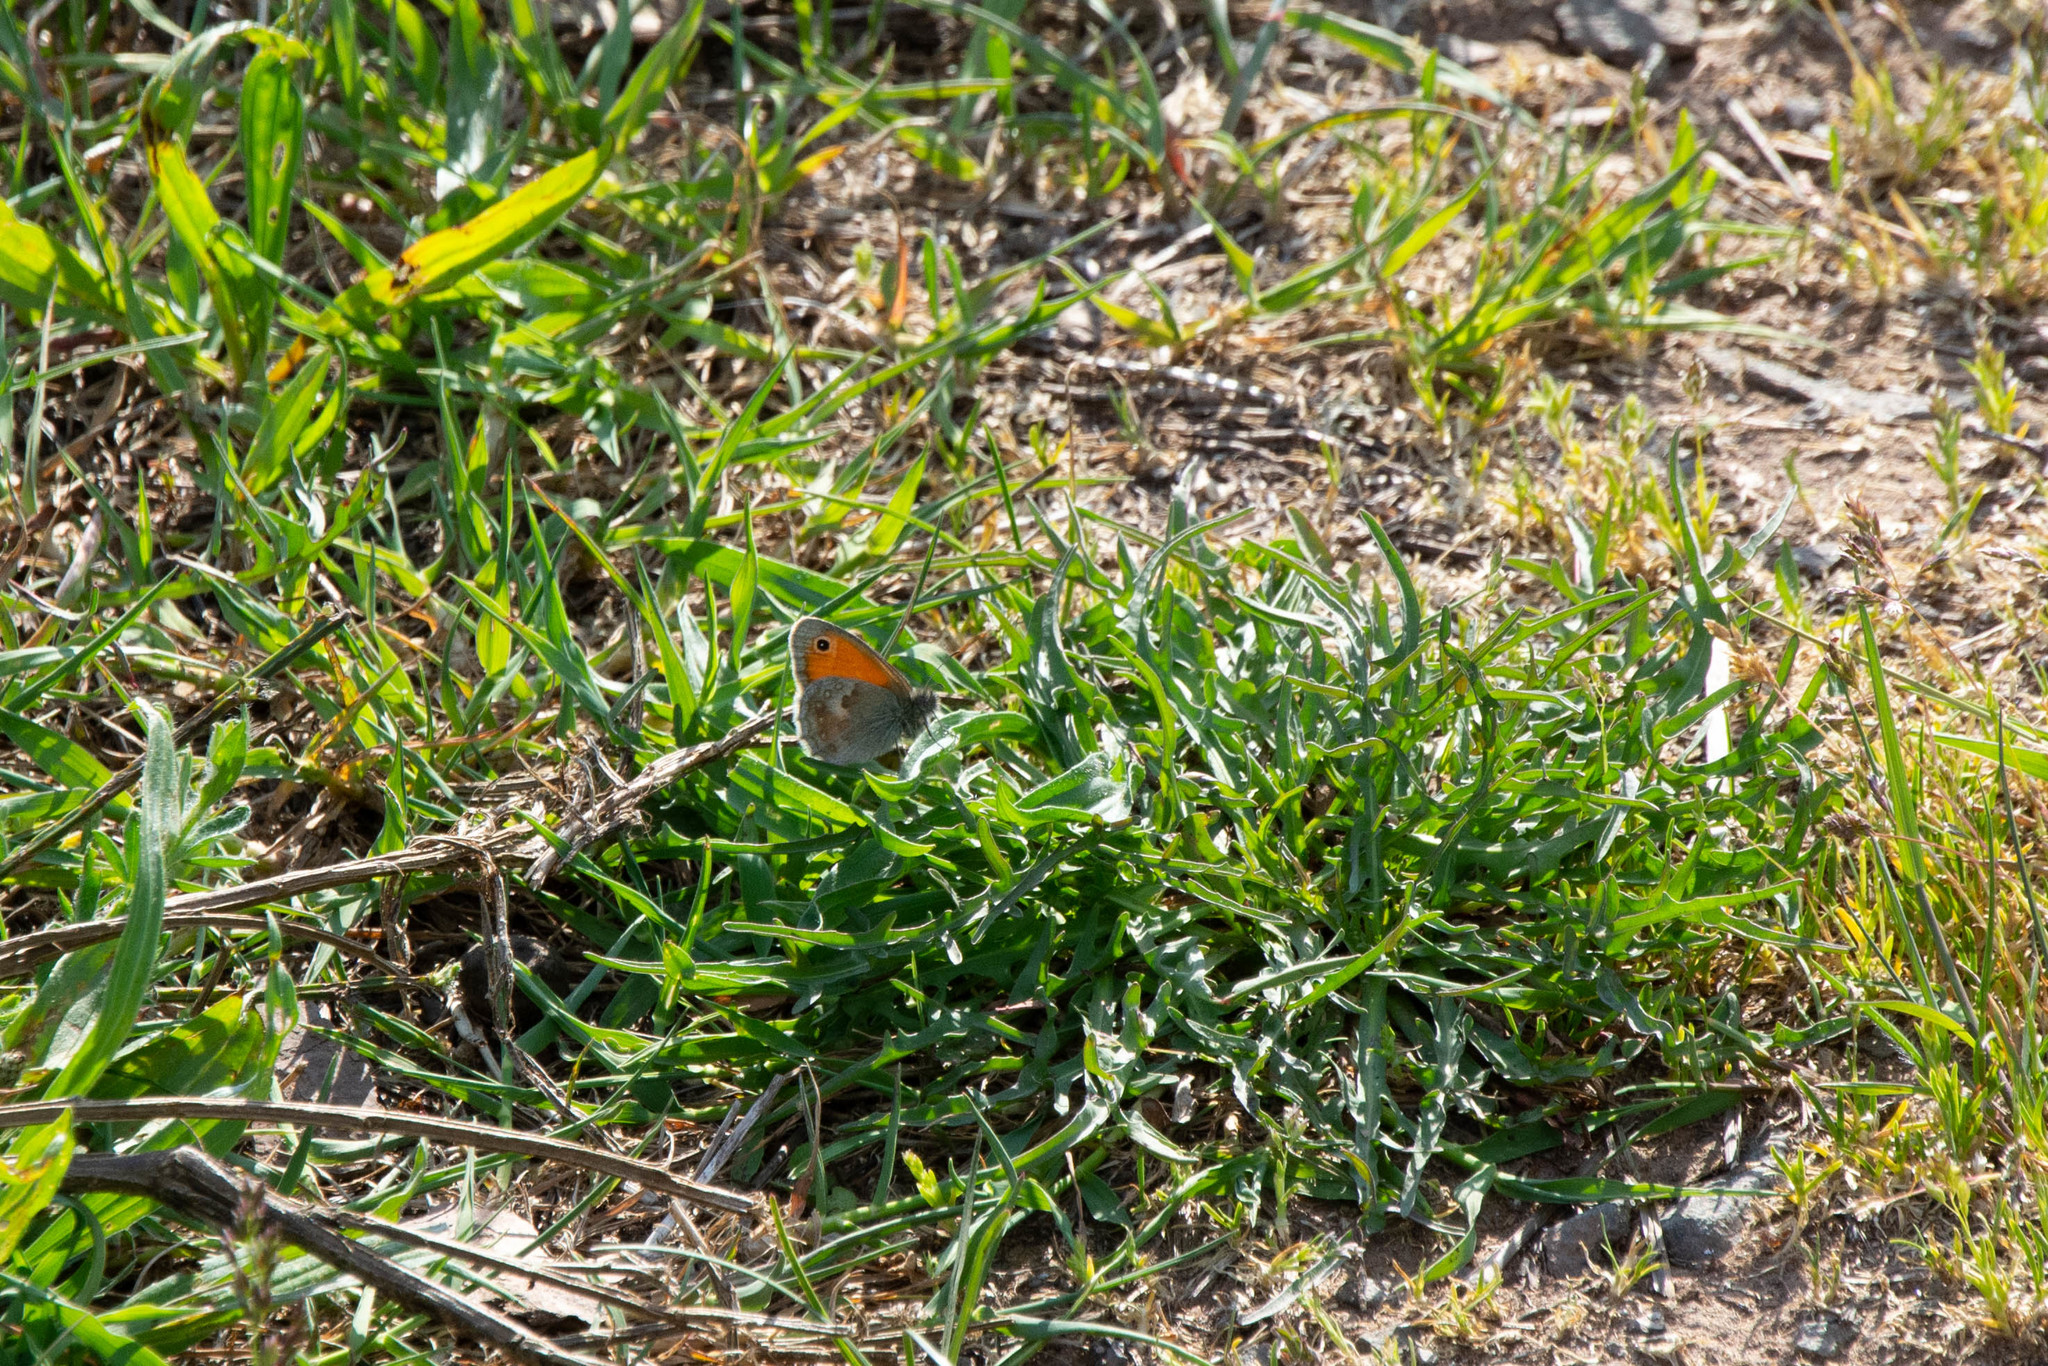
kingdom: Animalia
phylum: Arthropoda
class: Insecta
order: Lepidoptera
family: Nymphalidae
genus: Coenonympha
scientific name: Coenonympha pamphilus
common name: Small heath
